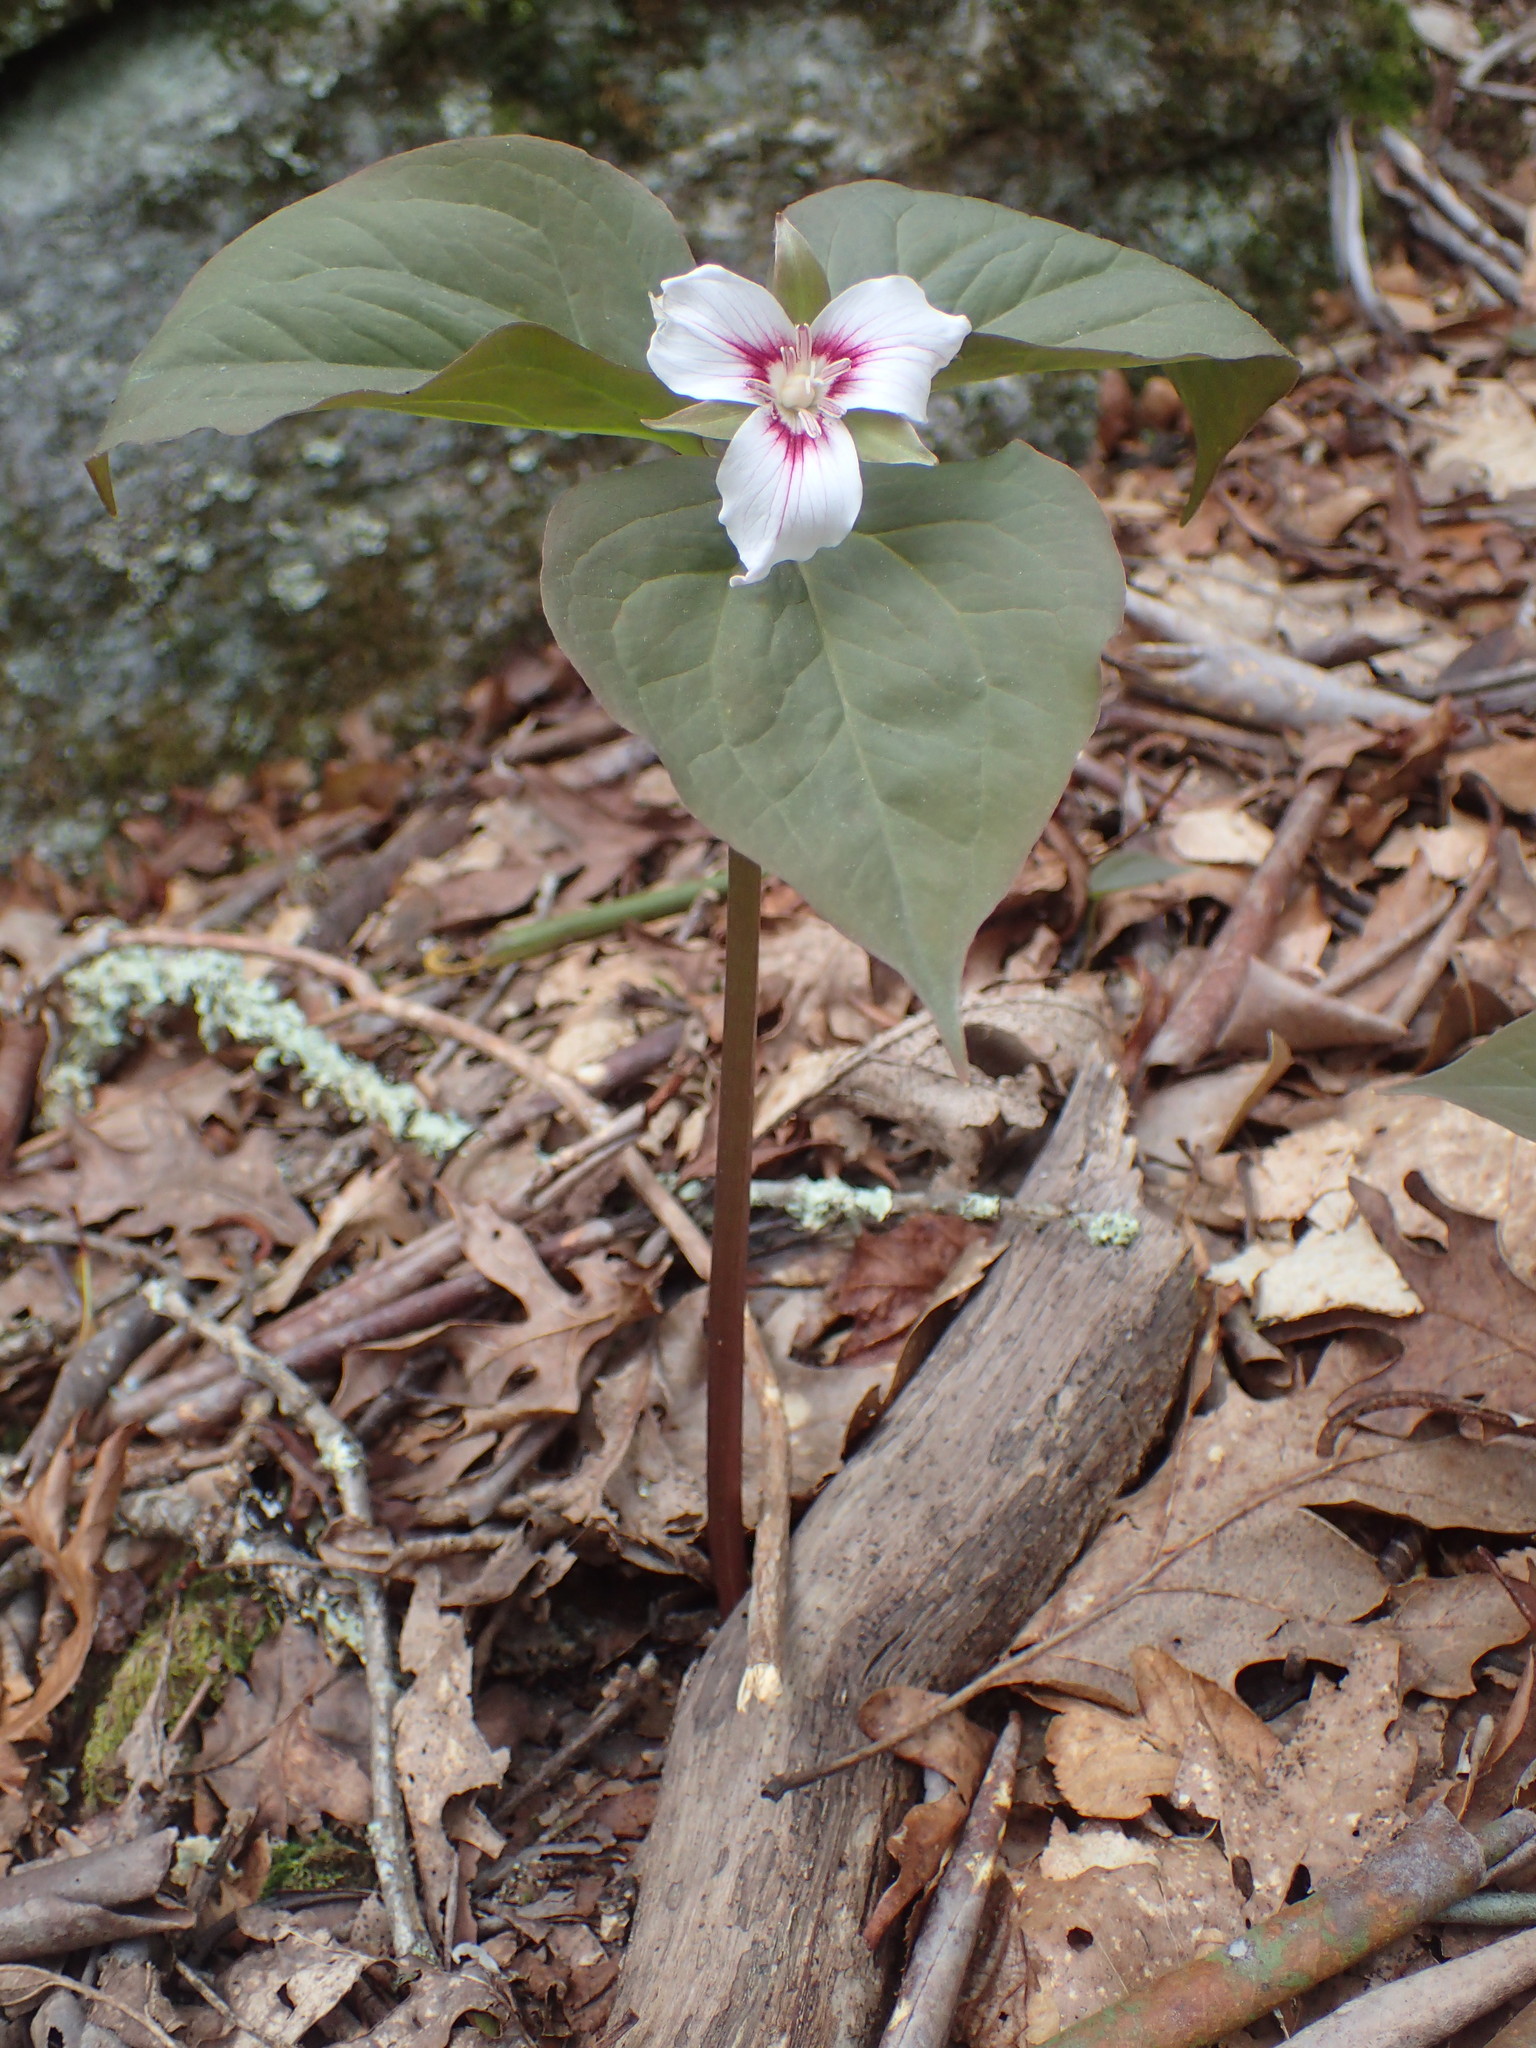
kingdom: Plantae
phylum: Tracheophyta
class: Liliopsida
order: Liliales
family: Melanthiaceae
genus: Trillium
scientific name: Trillium undulatum
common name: Paint trillium
